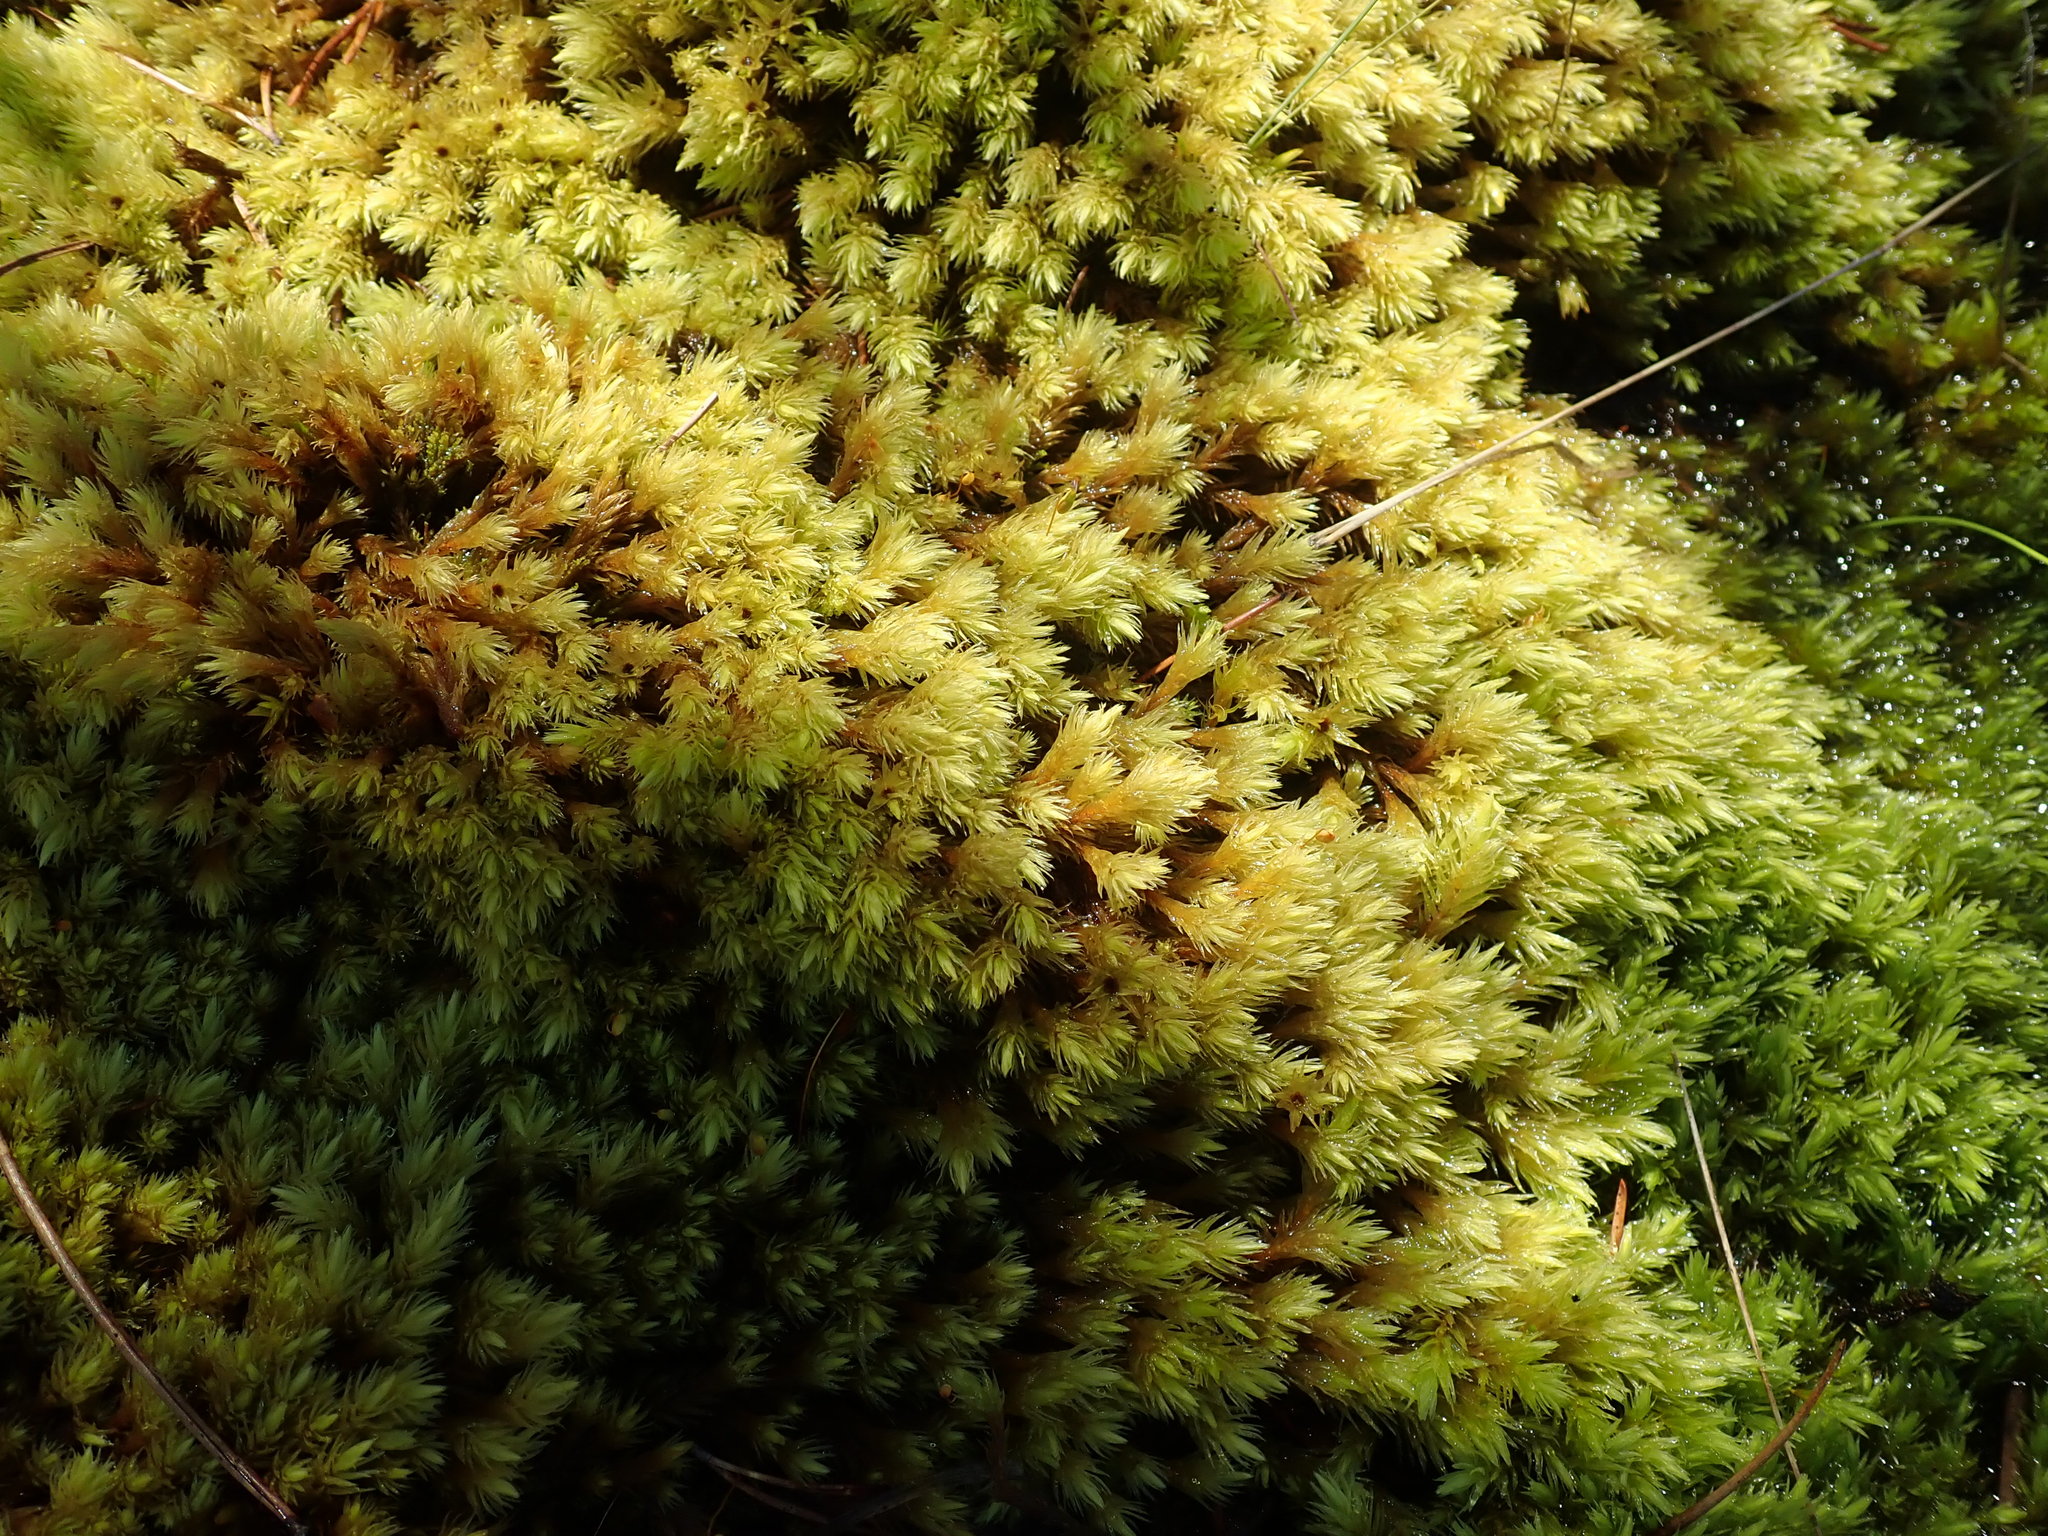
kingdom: Plantae
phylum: Bryophyta
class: Bryopsida
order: Aulacomniales
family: Aulacomniaceae
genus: Aulacomnium
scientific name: Aulacomnium palustre
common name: Bog groove-moss
